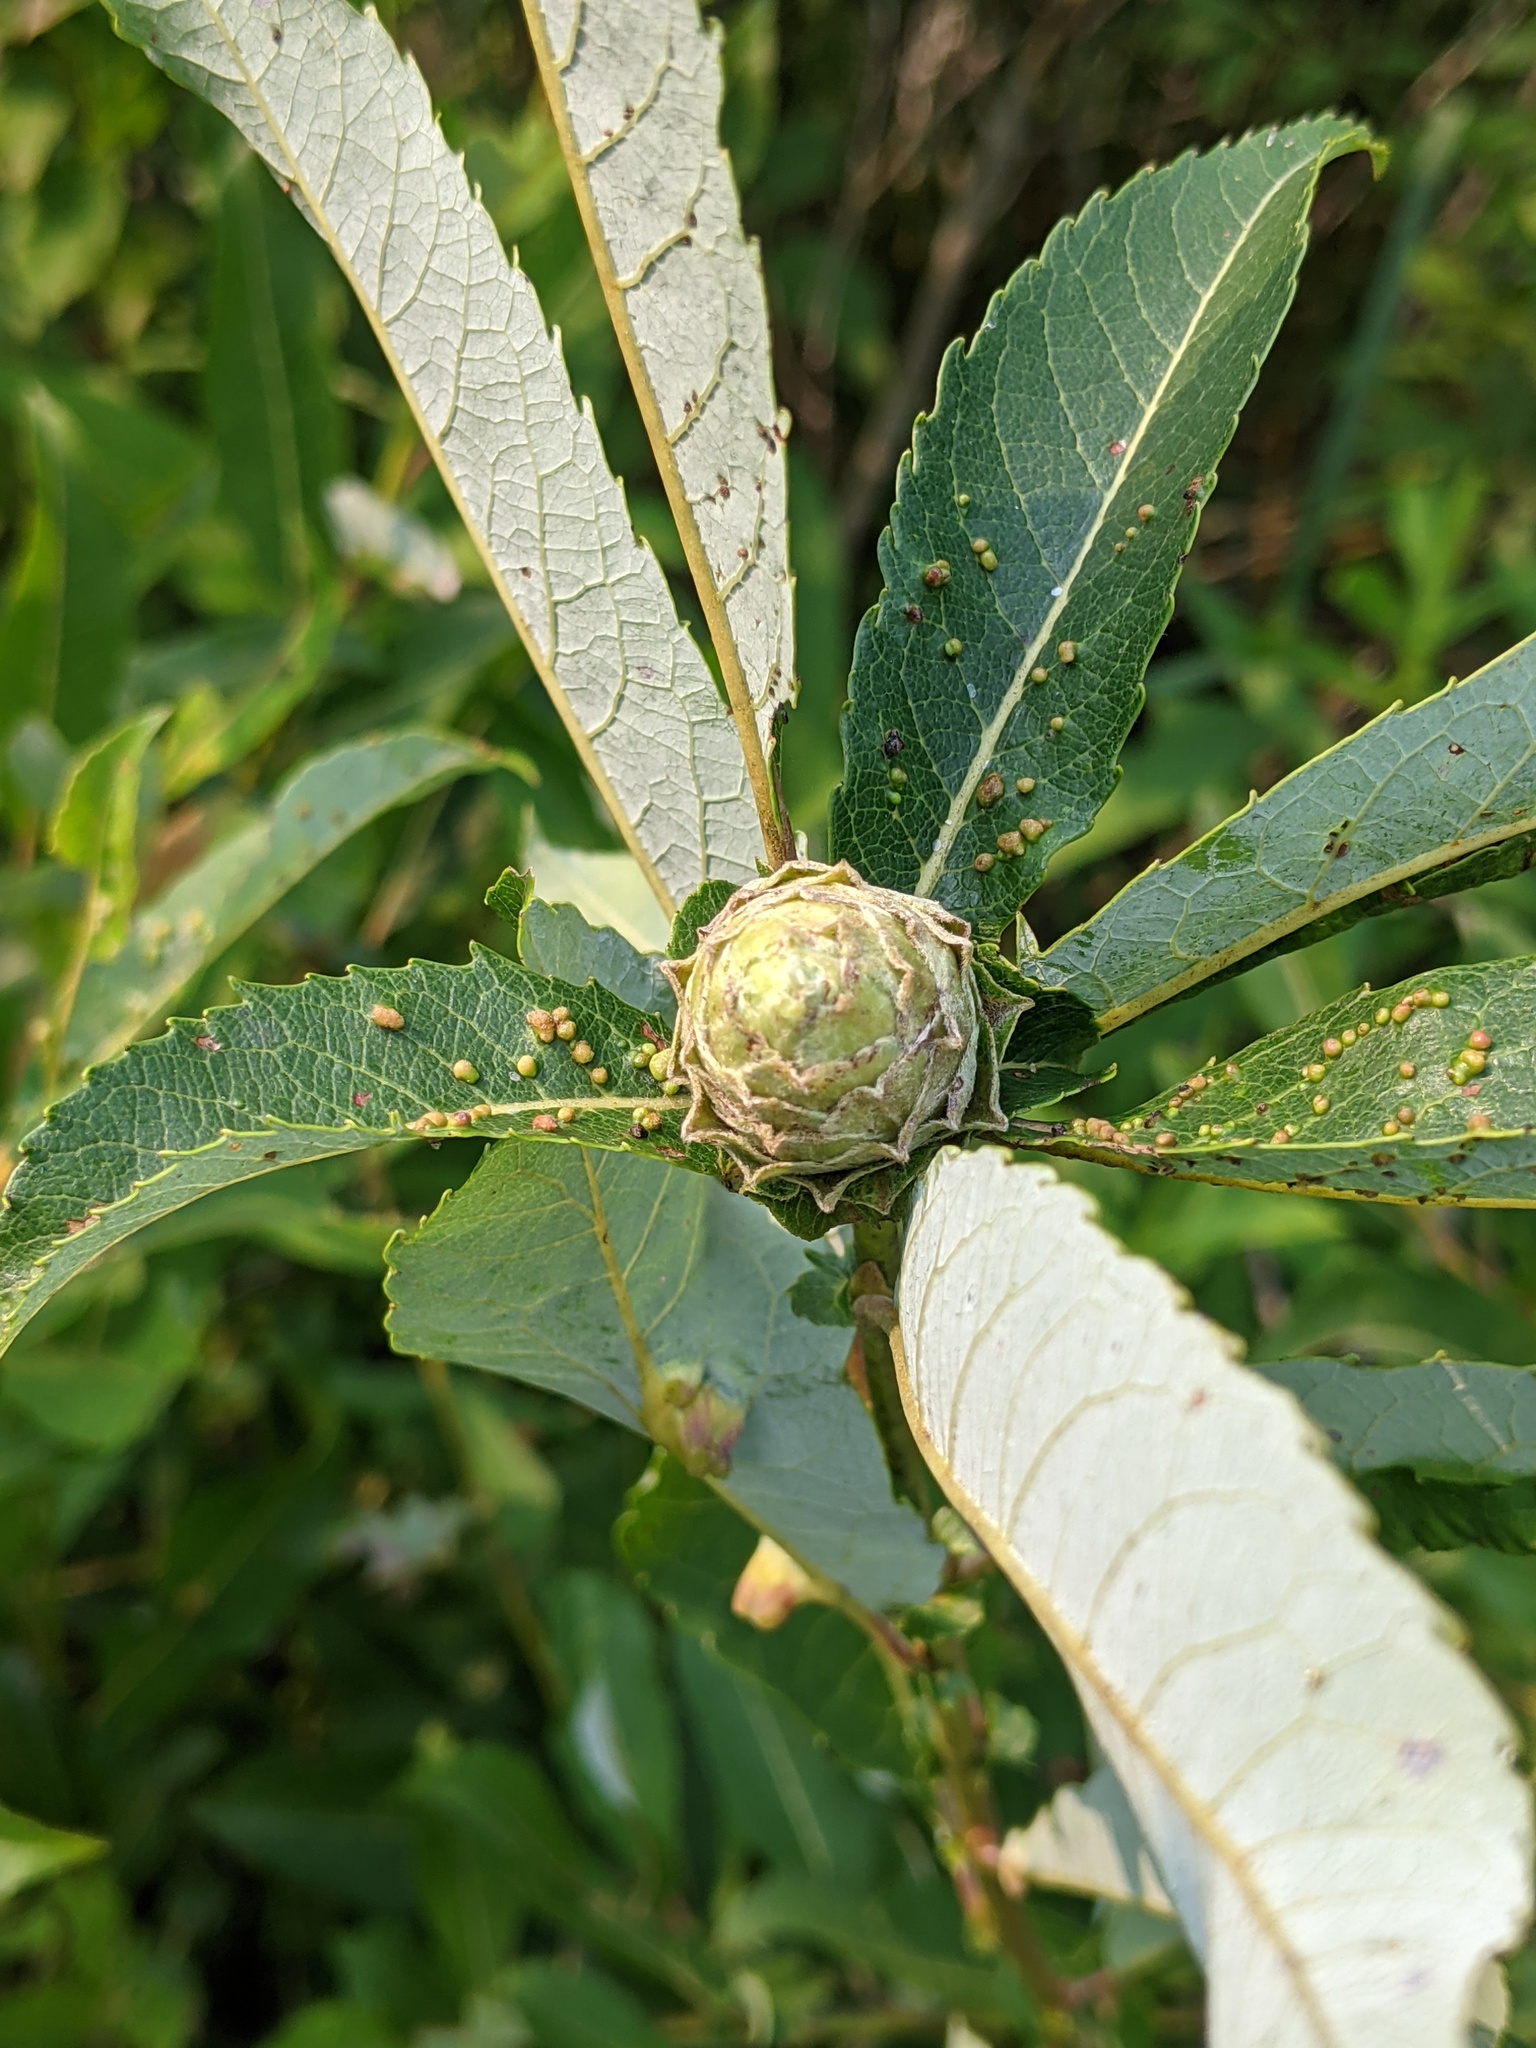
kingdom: Animalia
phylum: Arthropoda
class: Insecta
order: Diptera
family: Cecidomyiidae
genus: Rabdophaga
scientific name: Rabdophaga strobiloides
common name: Willow pinecone gall midge
